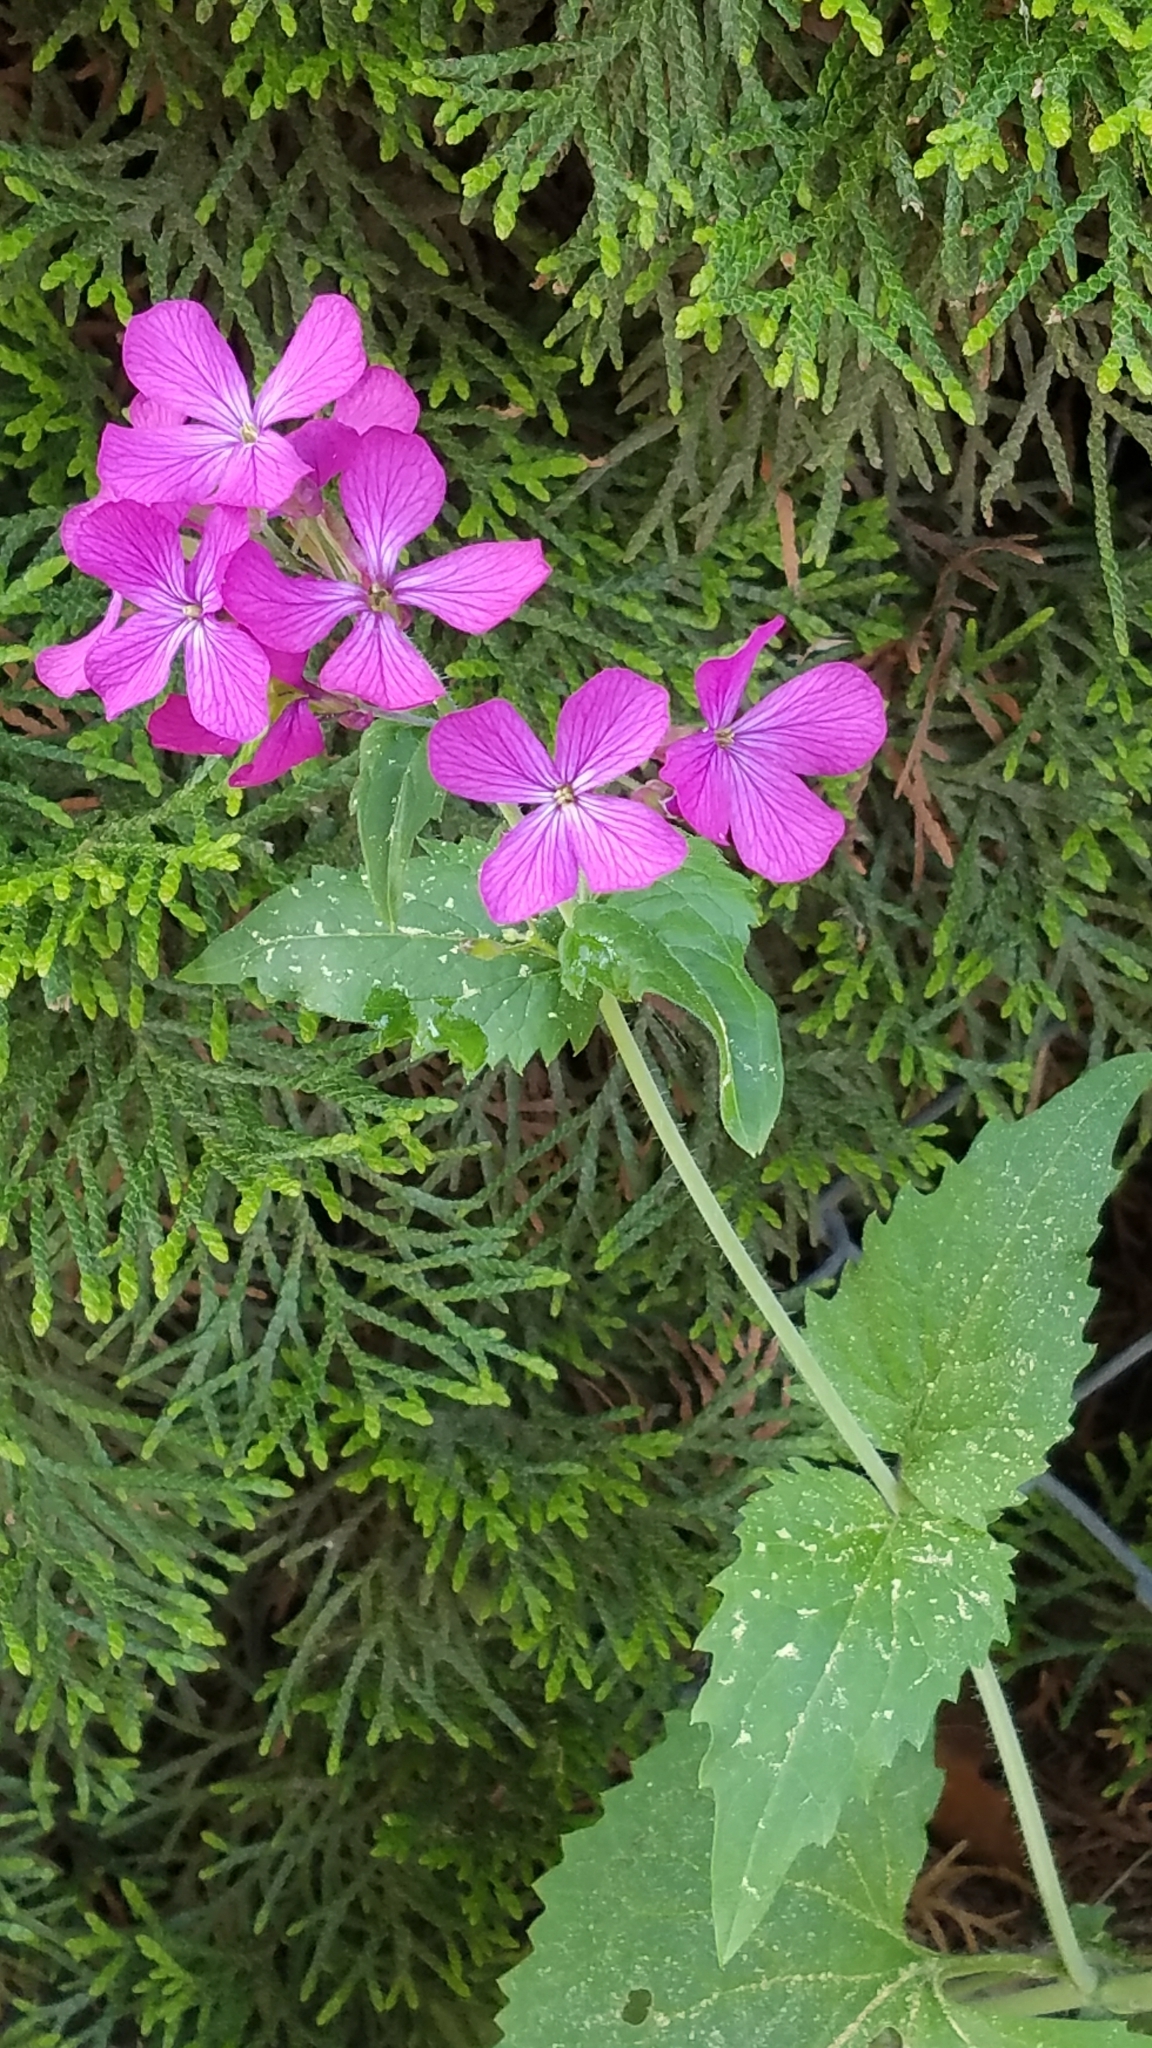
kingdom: Plantae
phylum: Tracheophyta
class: Magnoliopsida
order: Brassicales
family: Brassicaceae
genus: Lunaria
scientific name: Lunaria annua
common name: Honesty
